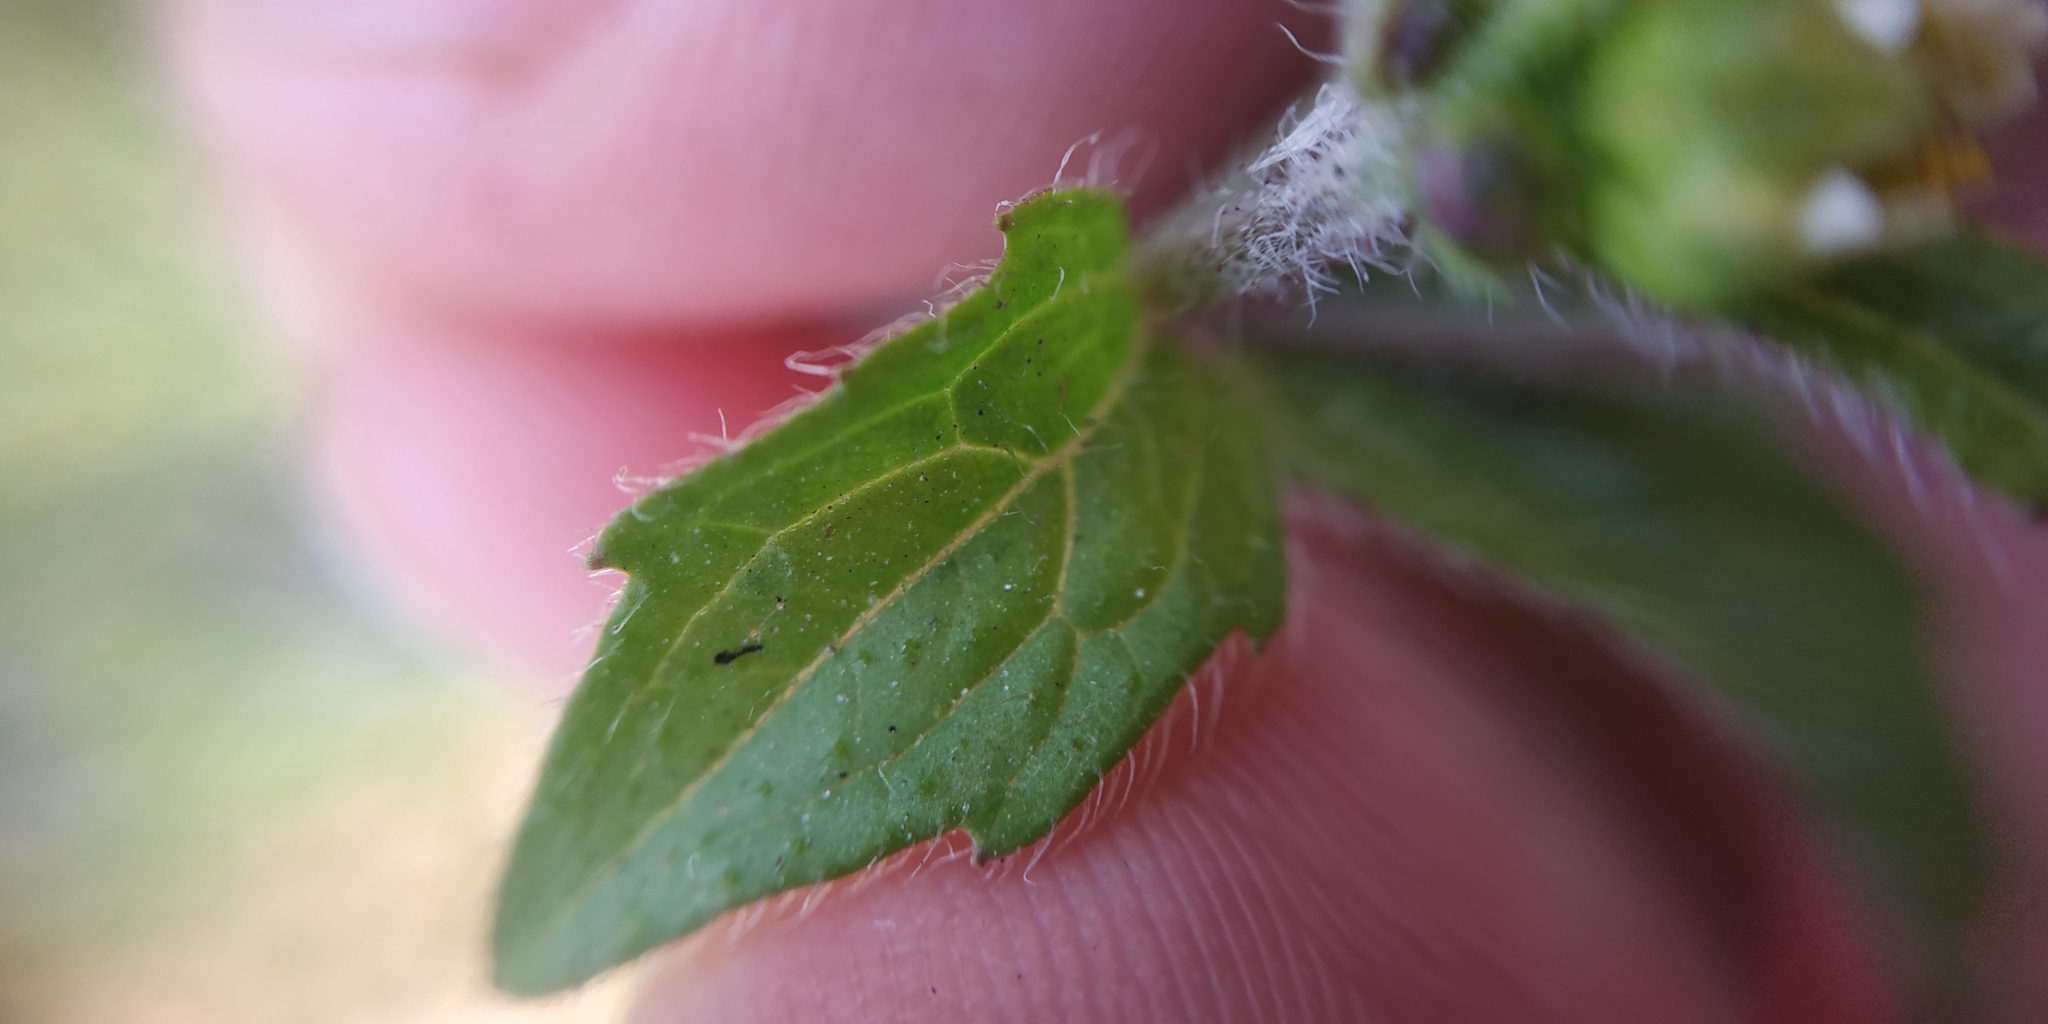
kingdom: Plantae
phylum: Tracheophyta
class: Magnoliopsida
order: Asterales
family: Asteraceae
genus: Galinsoga
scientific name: Galinsoga quadriradiata
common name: Shaggy soldier
